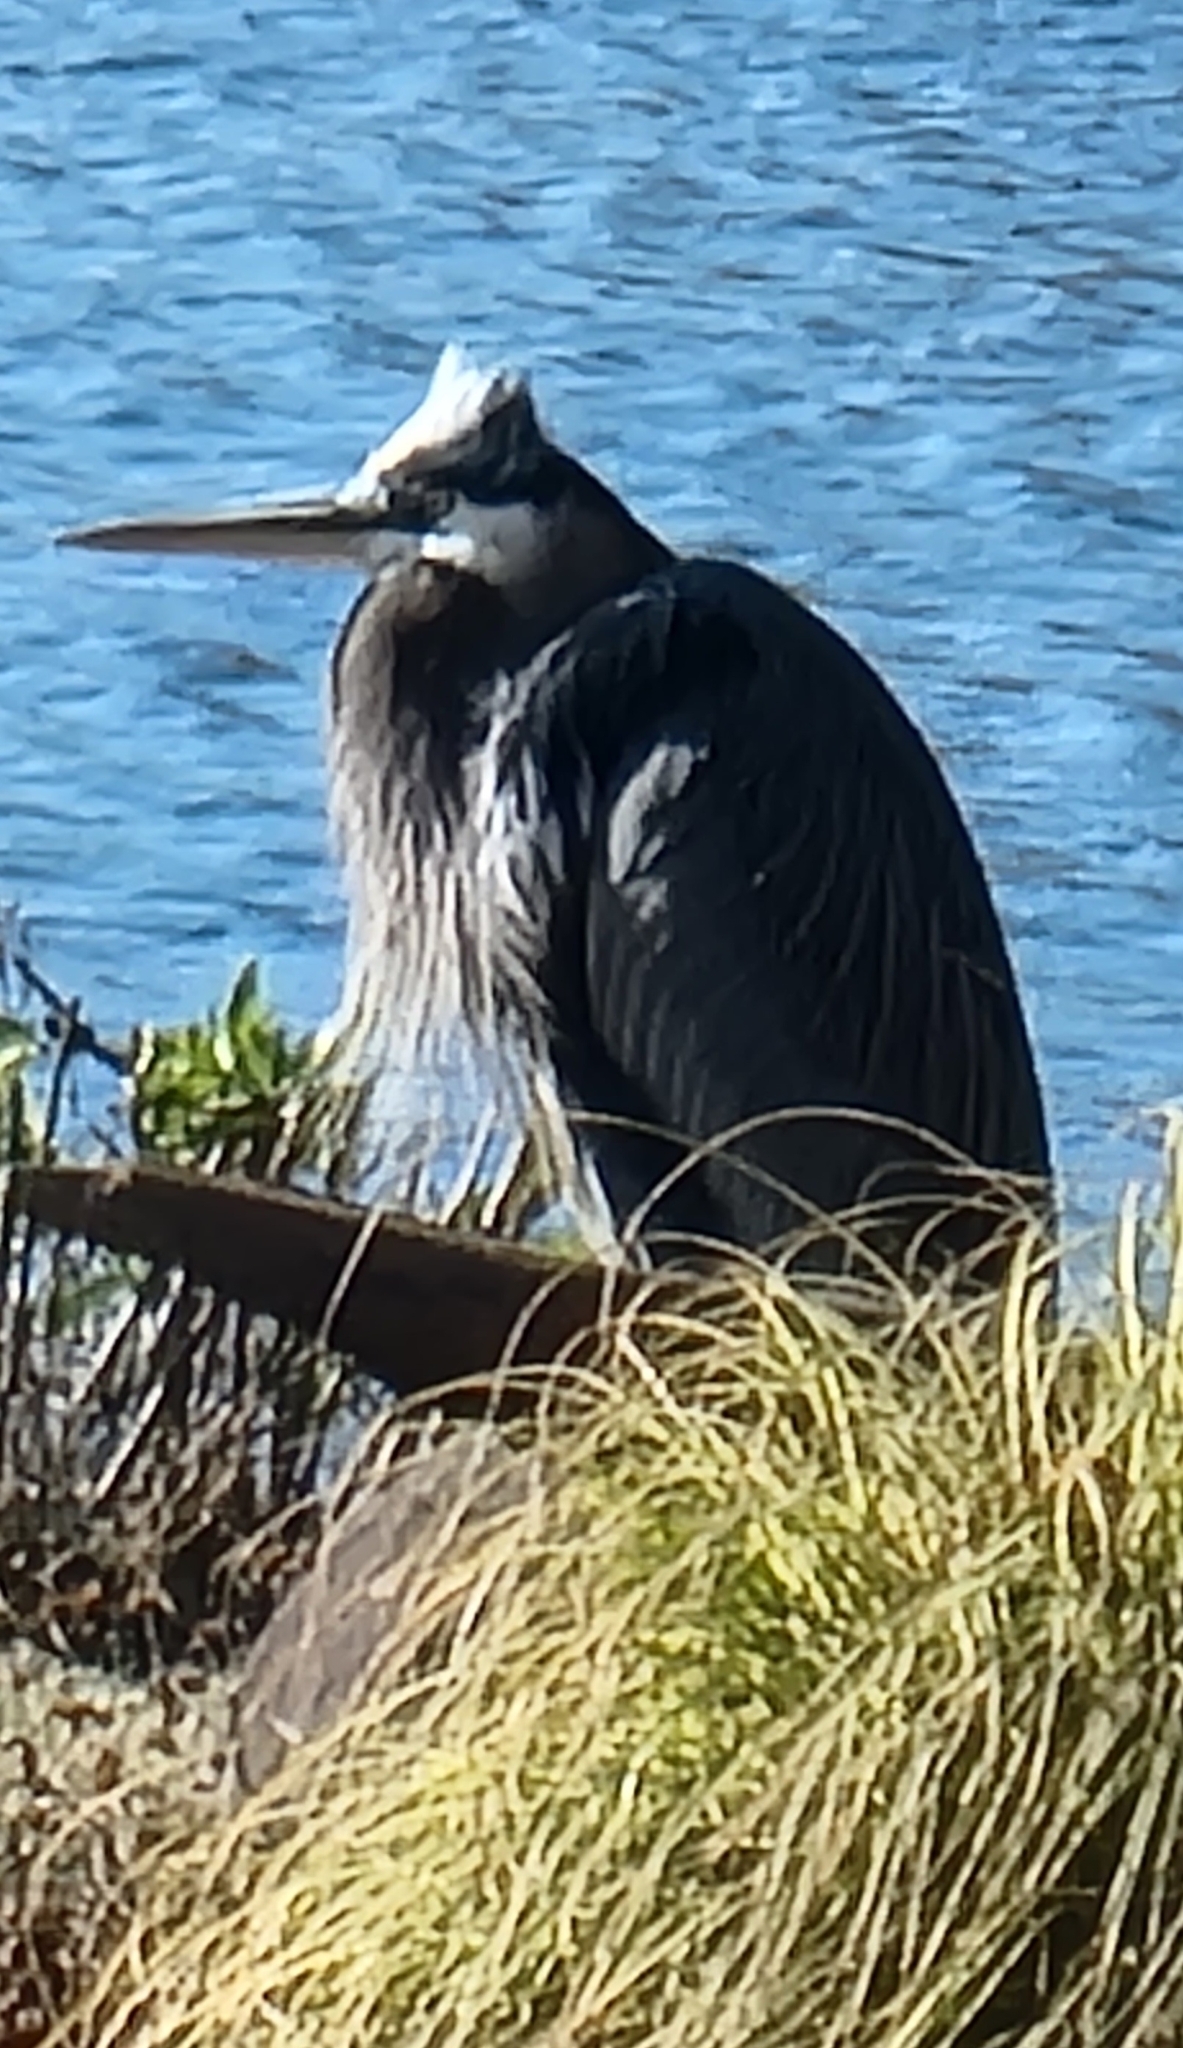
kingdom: Animalia
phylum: Chordata
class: Aves
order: Pelecaniformes
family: Ardeidae
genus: Ardea
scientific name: Ardea herodias
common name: Great blue heron
